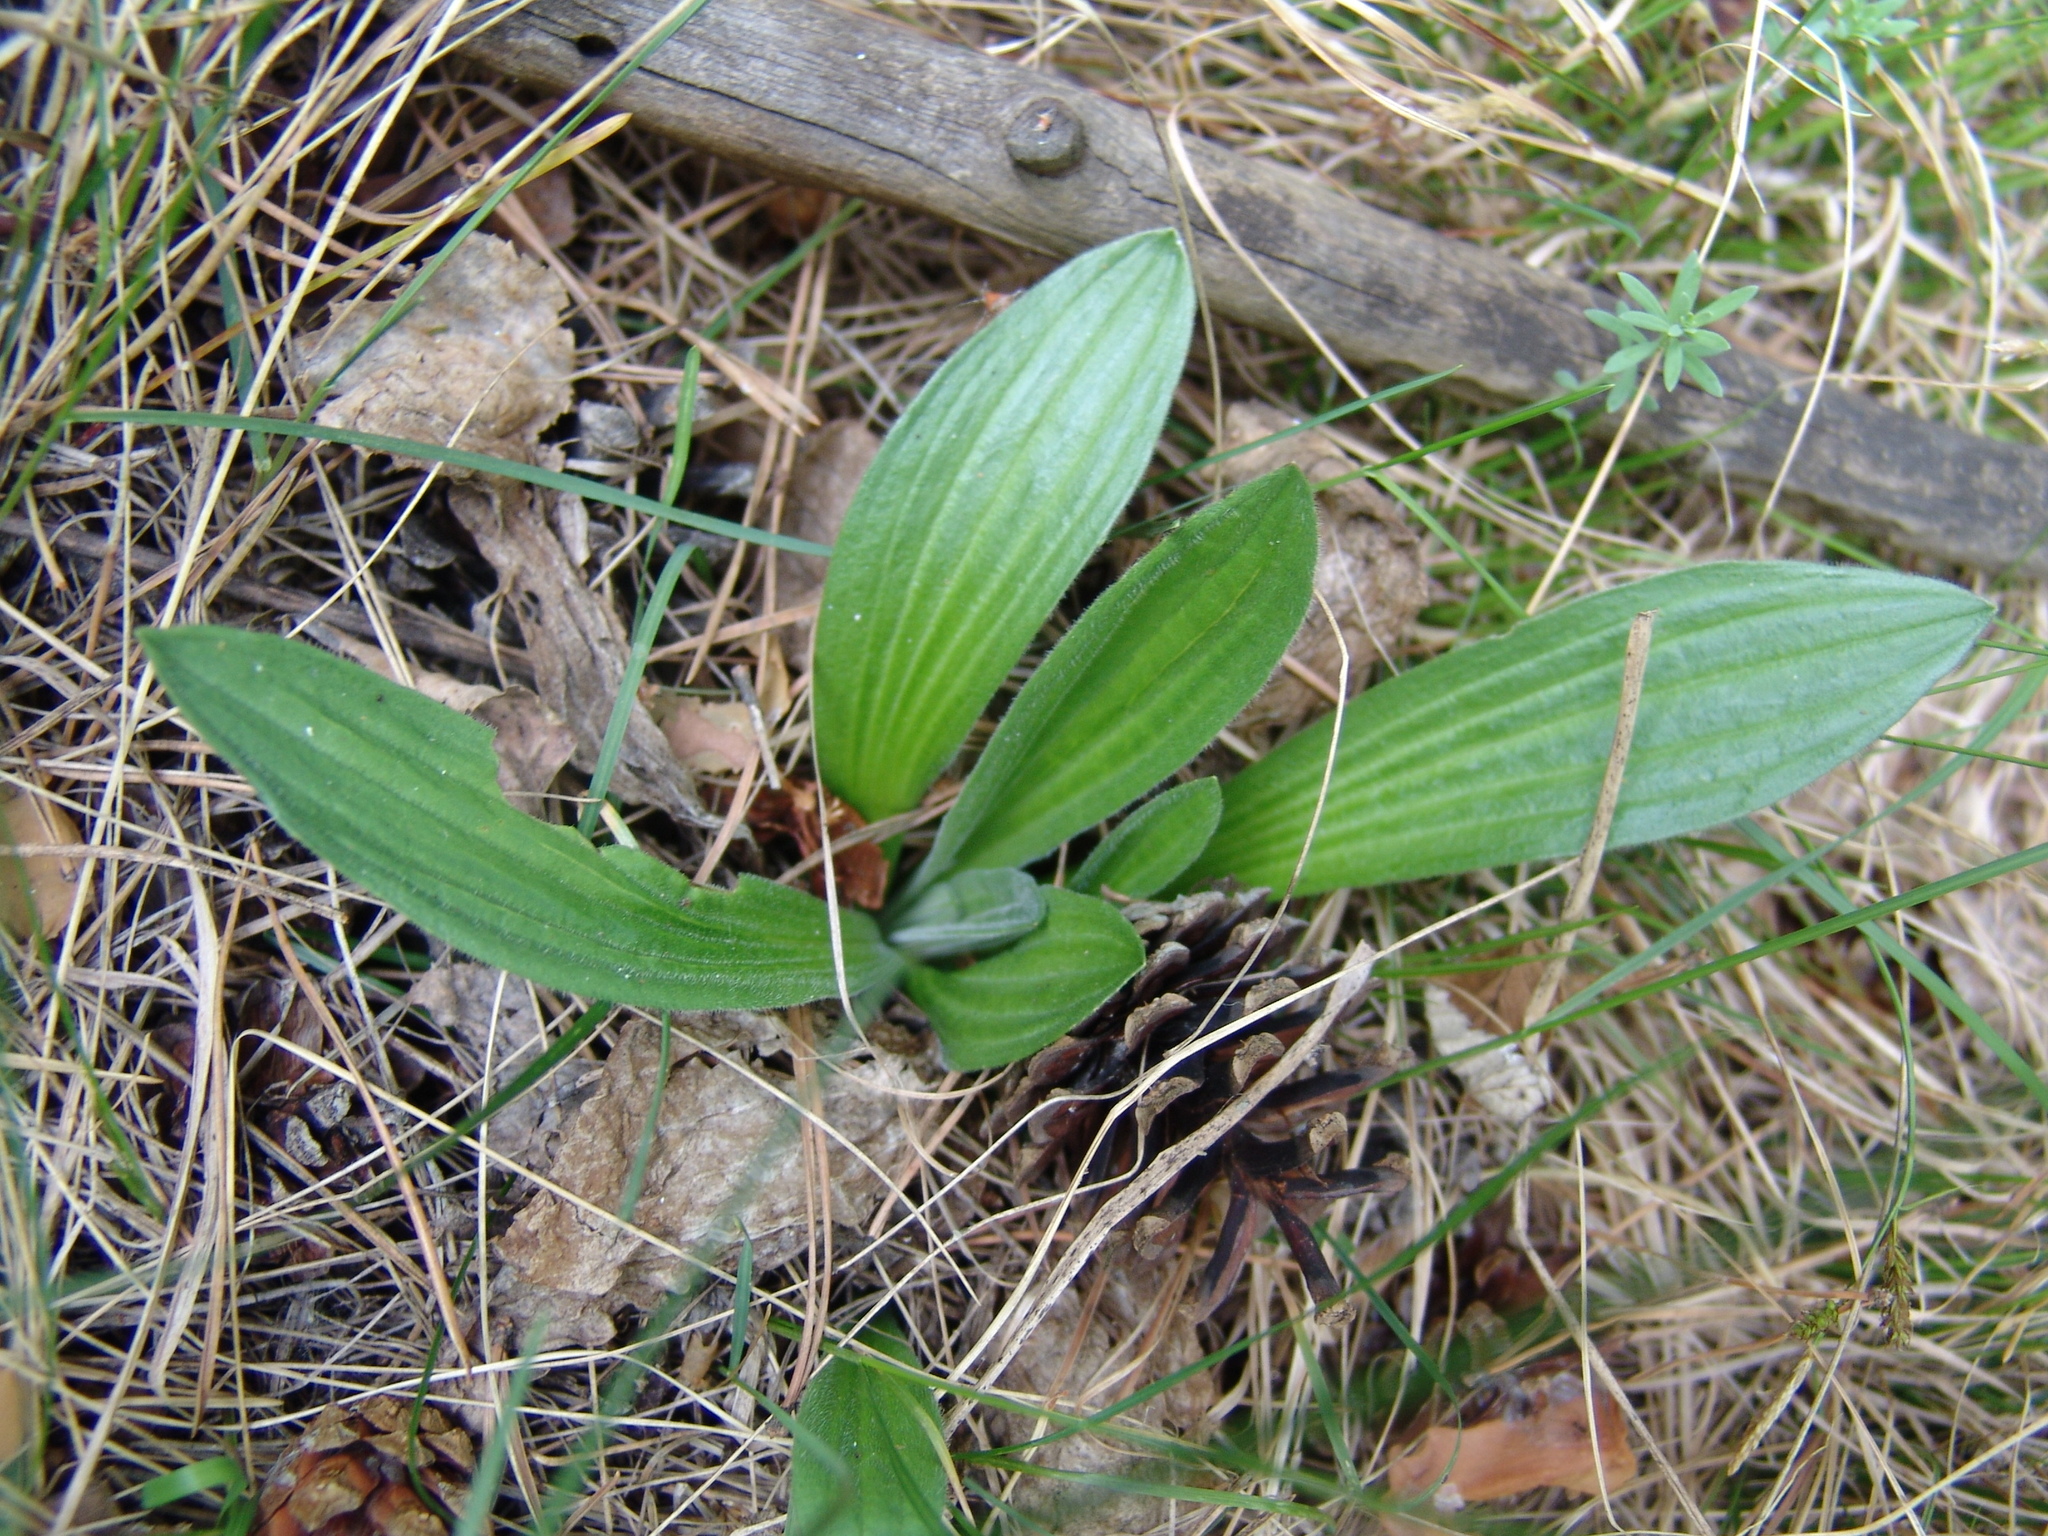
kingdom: Plantae
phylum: Tracheophyta
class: Magnoliopsida
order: Lamiales
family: Plantaginaceae
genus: Plantago
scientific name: Plantago urvillei
